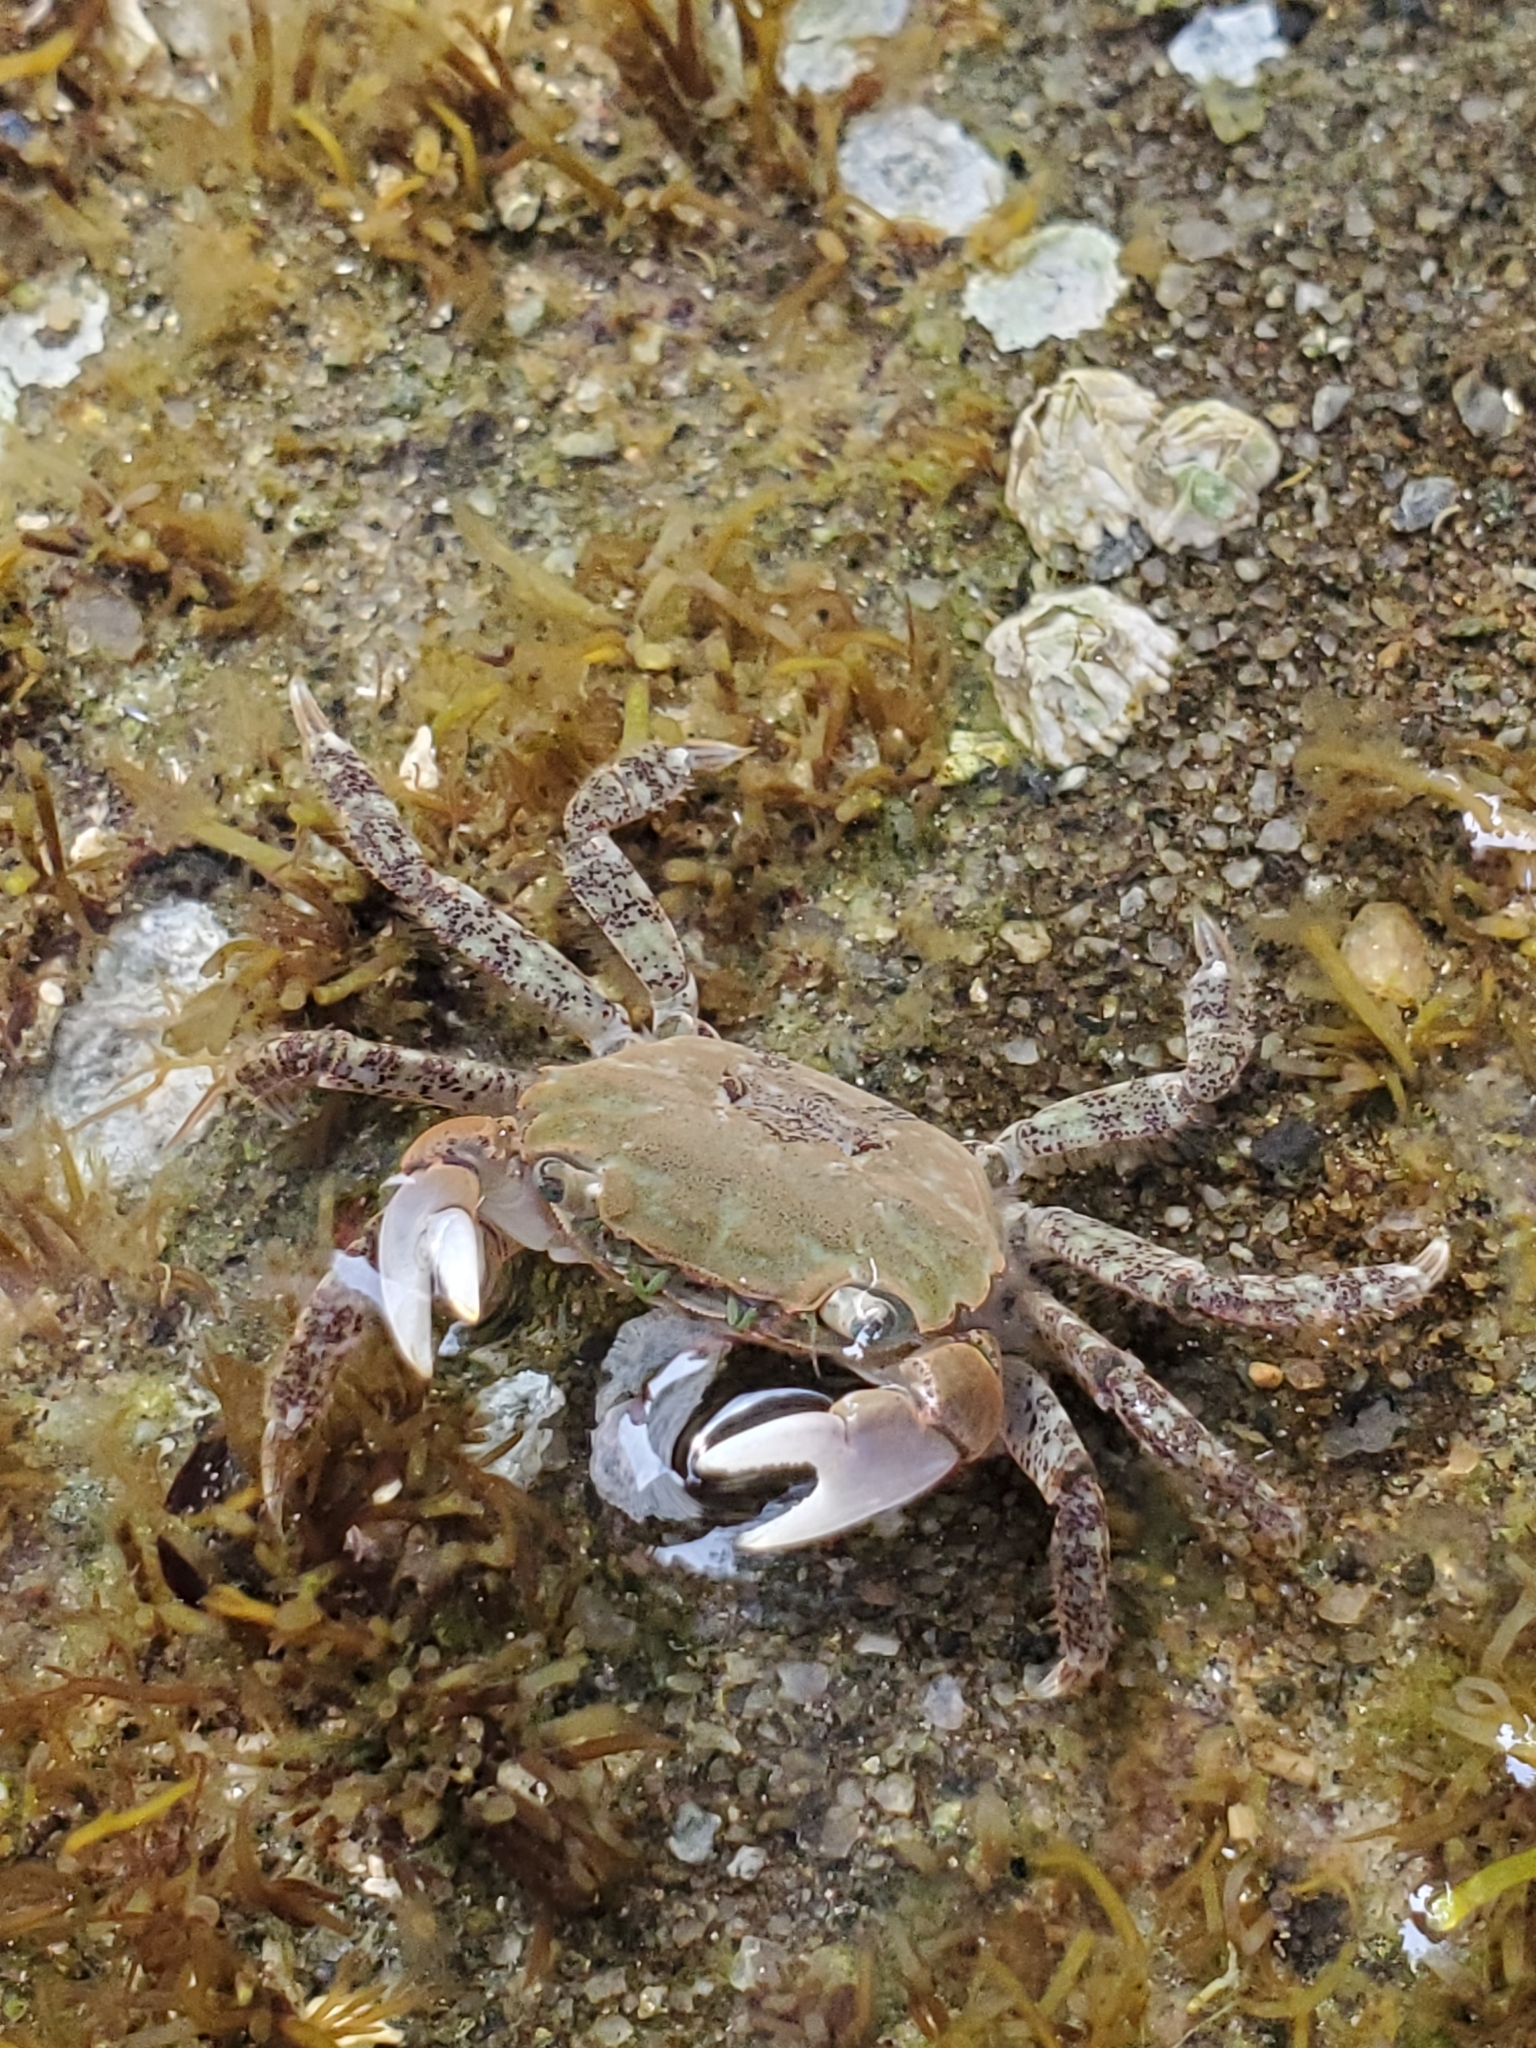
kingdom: Animalia
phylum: Arthropoda
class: Malacostraca
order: Decapoda
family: Varunidae
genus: Hemigrapsus
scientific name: Hemigrapsus oregonensis
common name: Yellow shore crab
